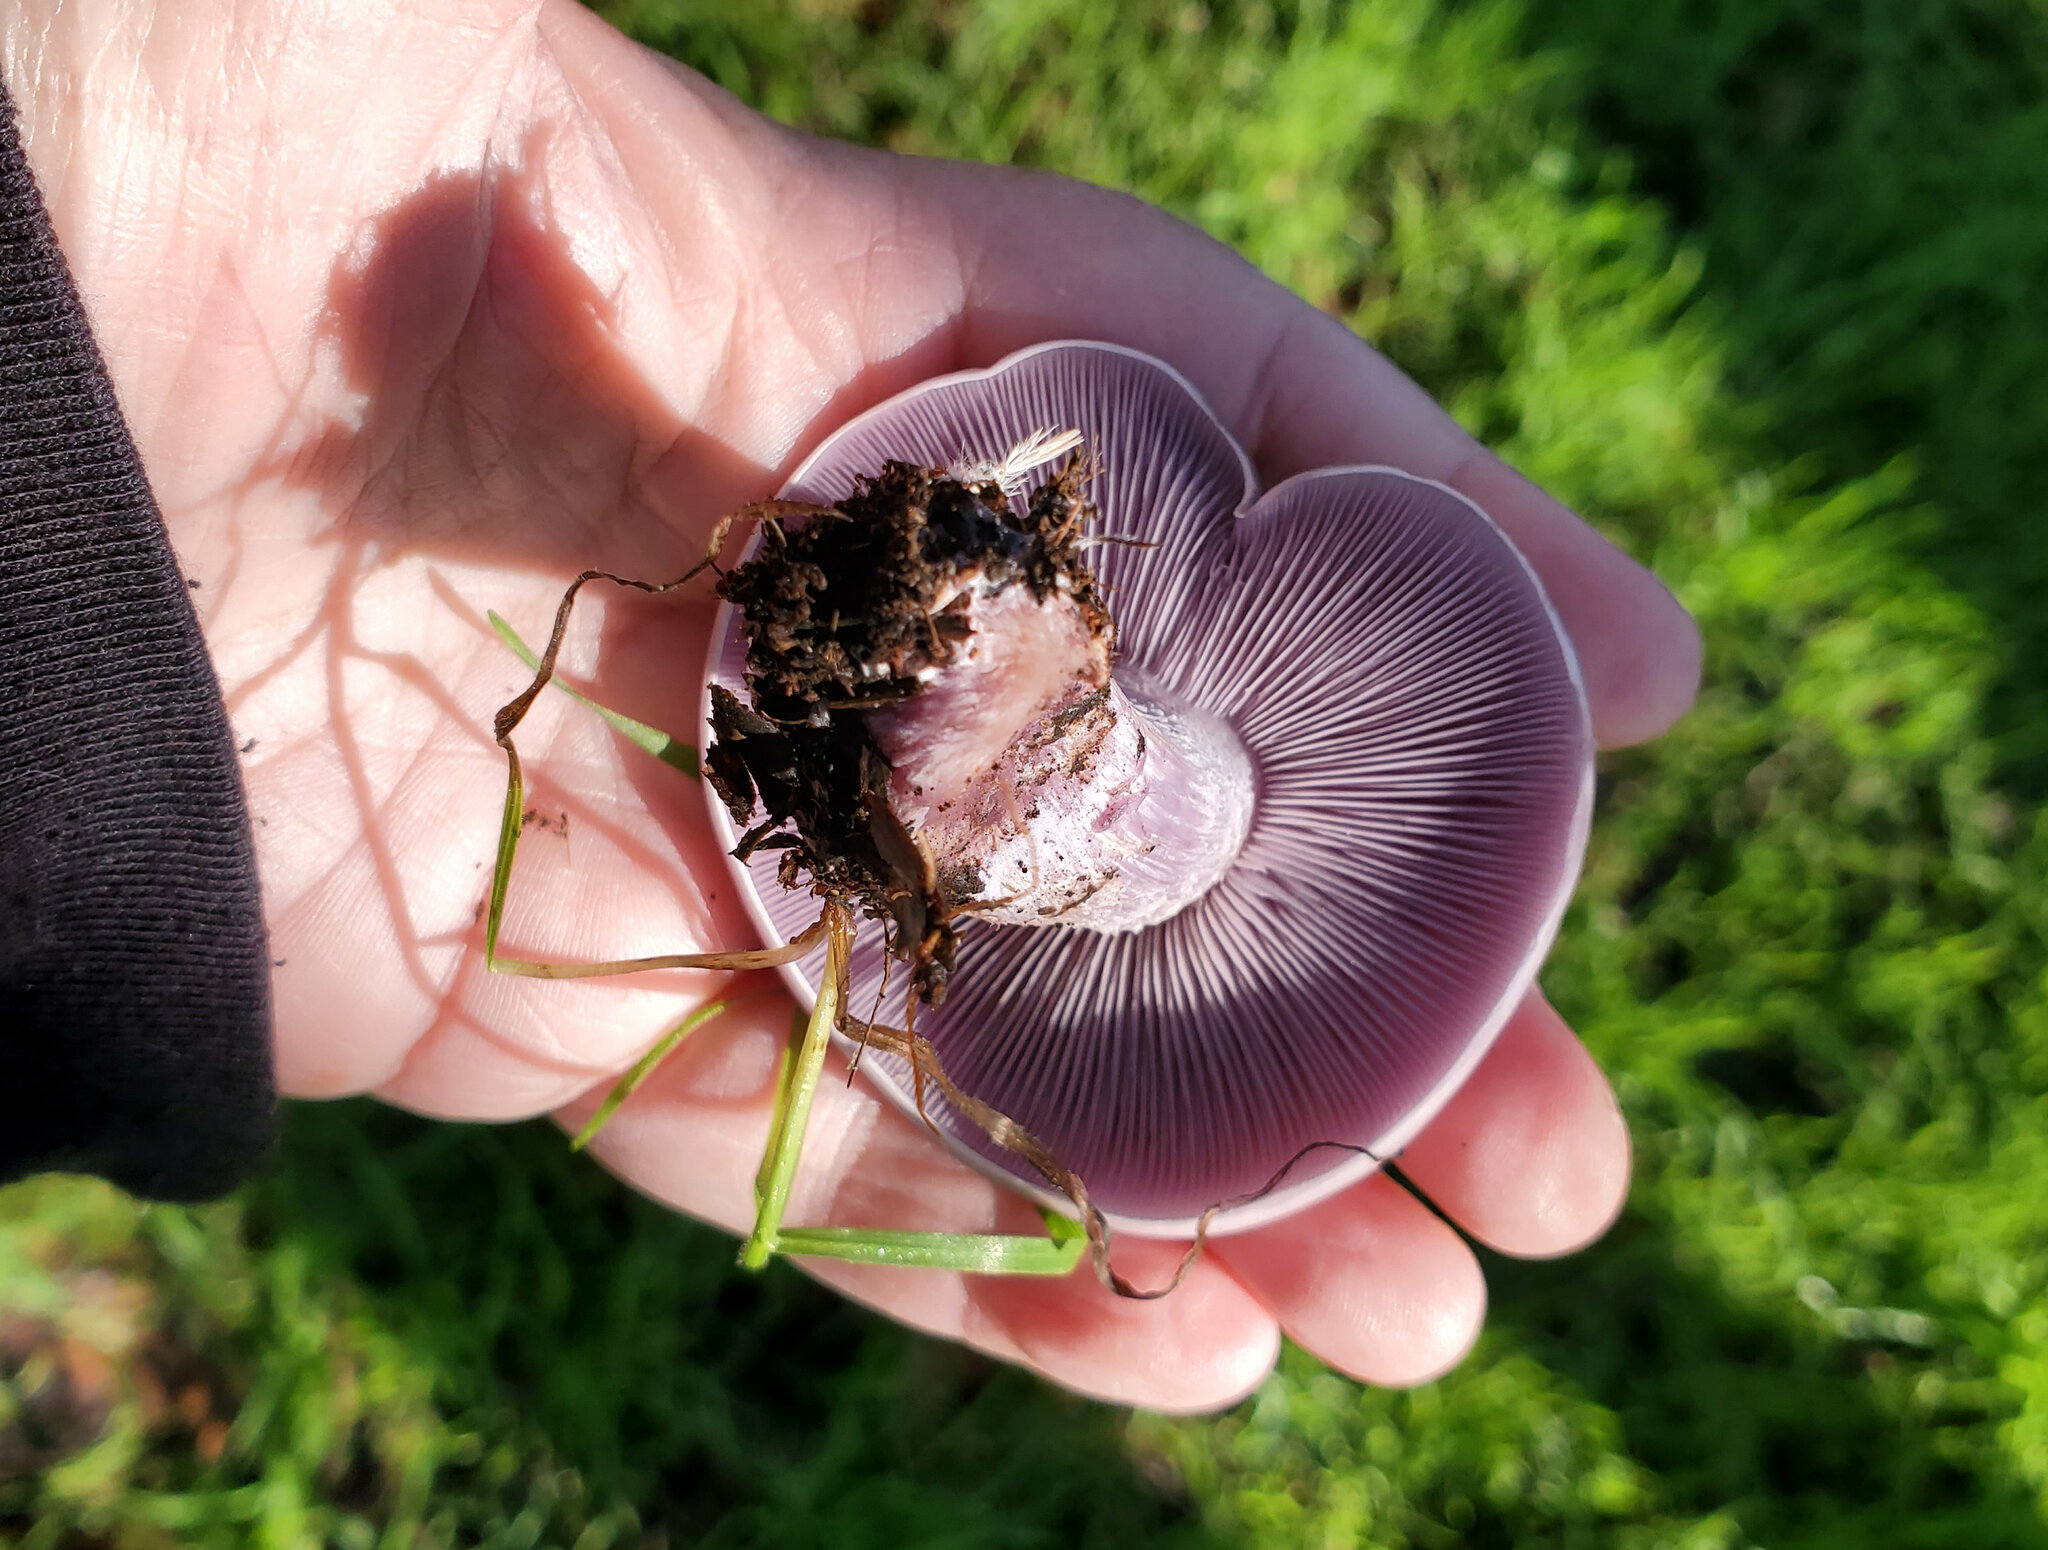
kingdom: Fungi
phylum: Basidiomycota
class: Agaricomycetes
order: Agaricales
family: Tricholomataceae
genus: Collybia
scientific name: Collybia
